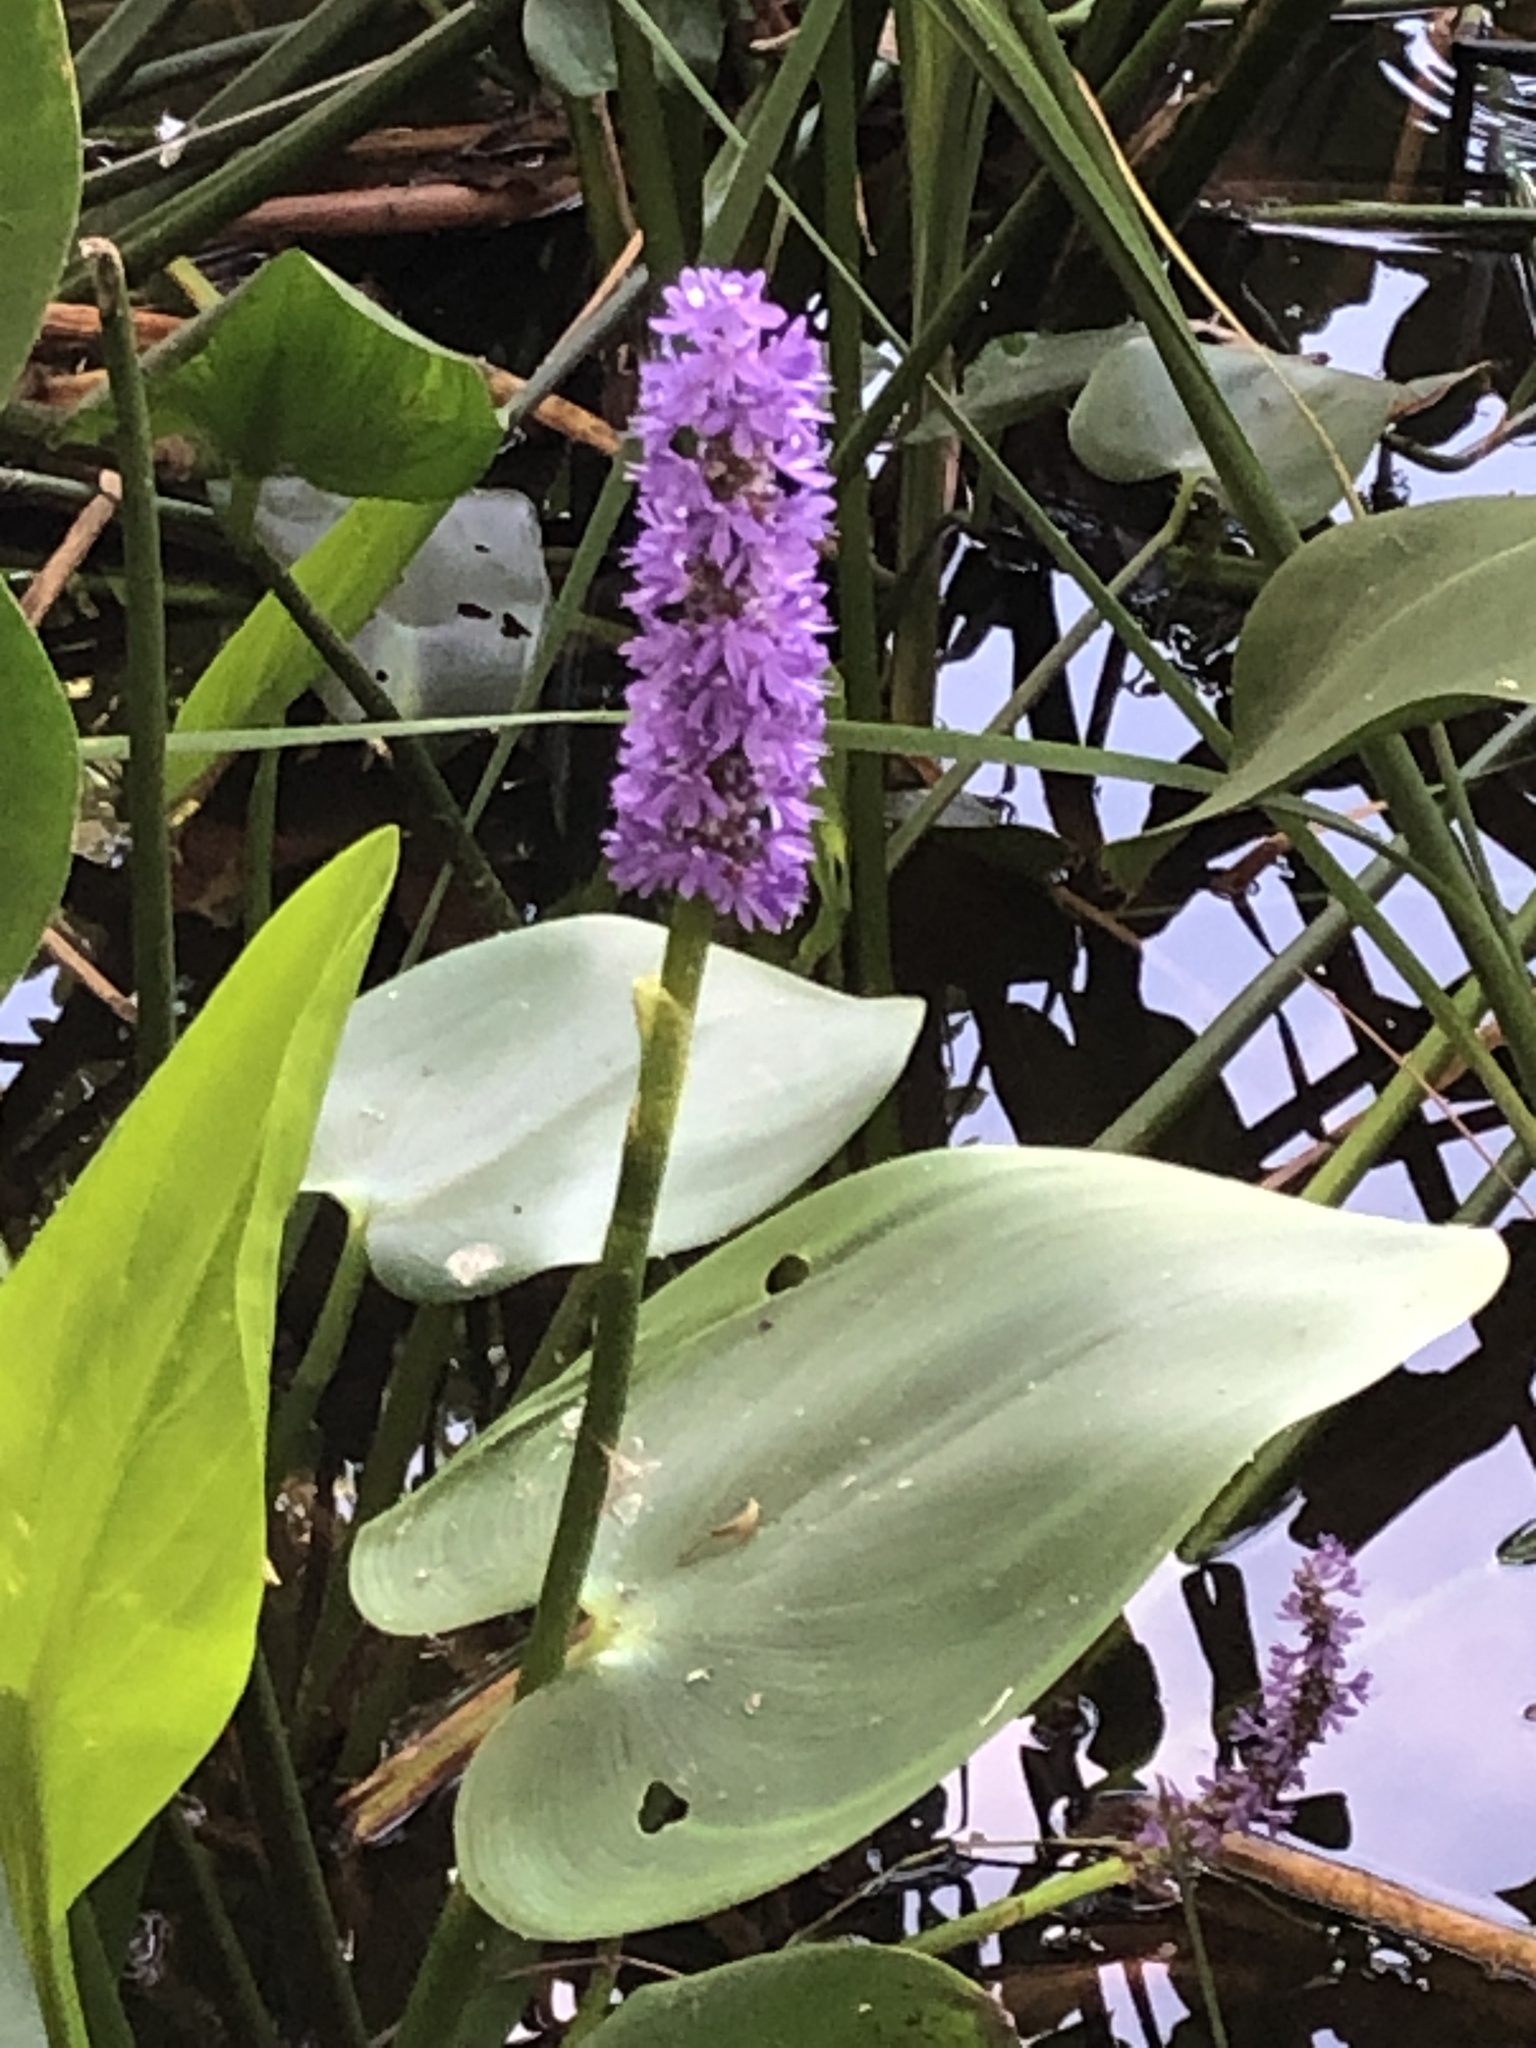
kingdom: Plantae
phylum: Tracheophyta
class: Liliopsida
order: Commelinales
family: Pontederiaceae
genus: Pontederia
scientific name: Pontederia cordata
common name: Pickerelweed
